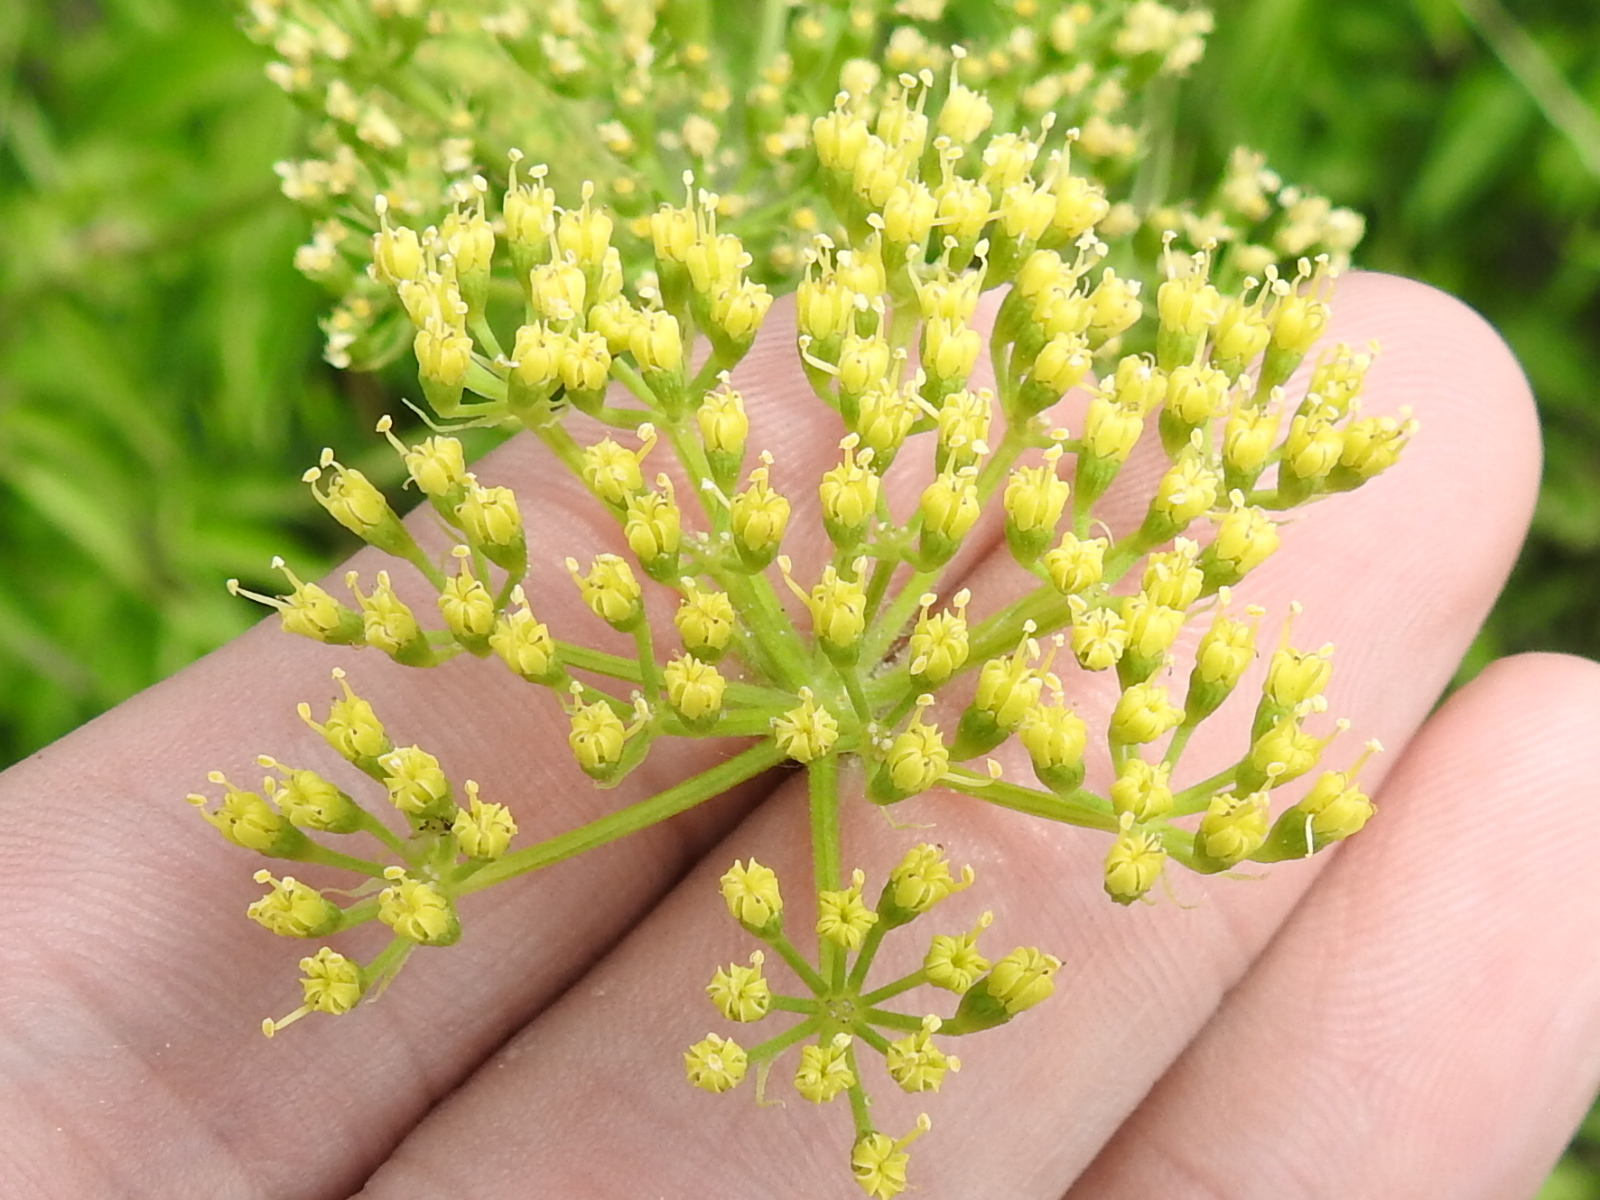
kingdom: Plantae
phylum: Tracheophyta
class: Magnoliopsida
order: Apiales
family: Apiaceae
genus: Polytaenia
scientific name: Polytaenia texana
